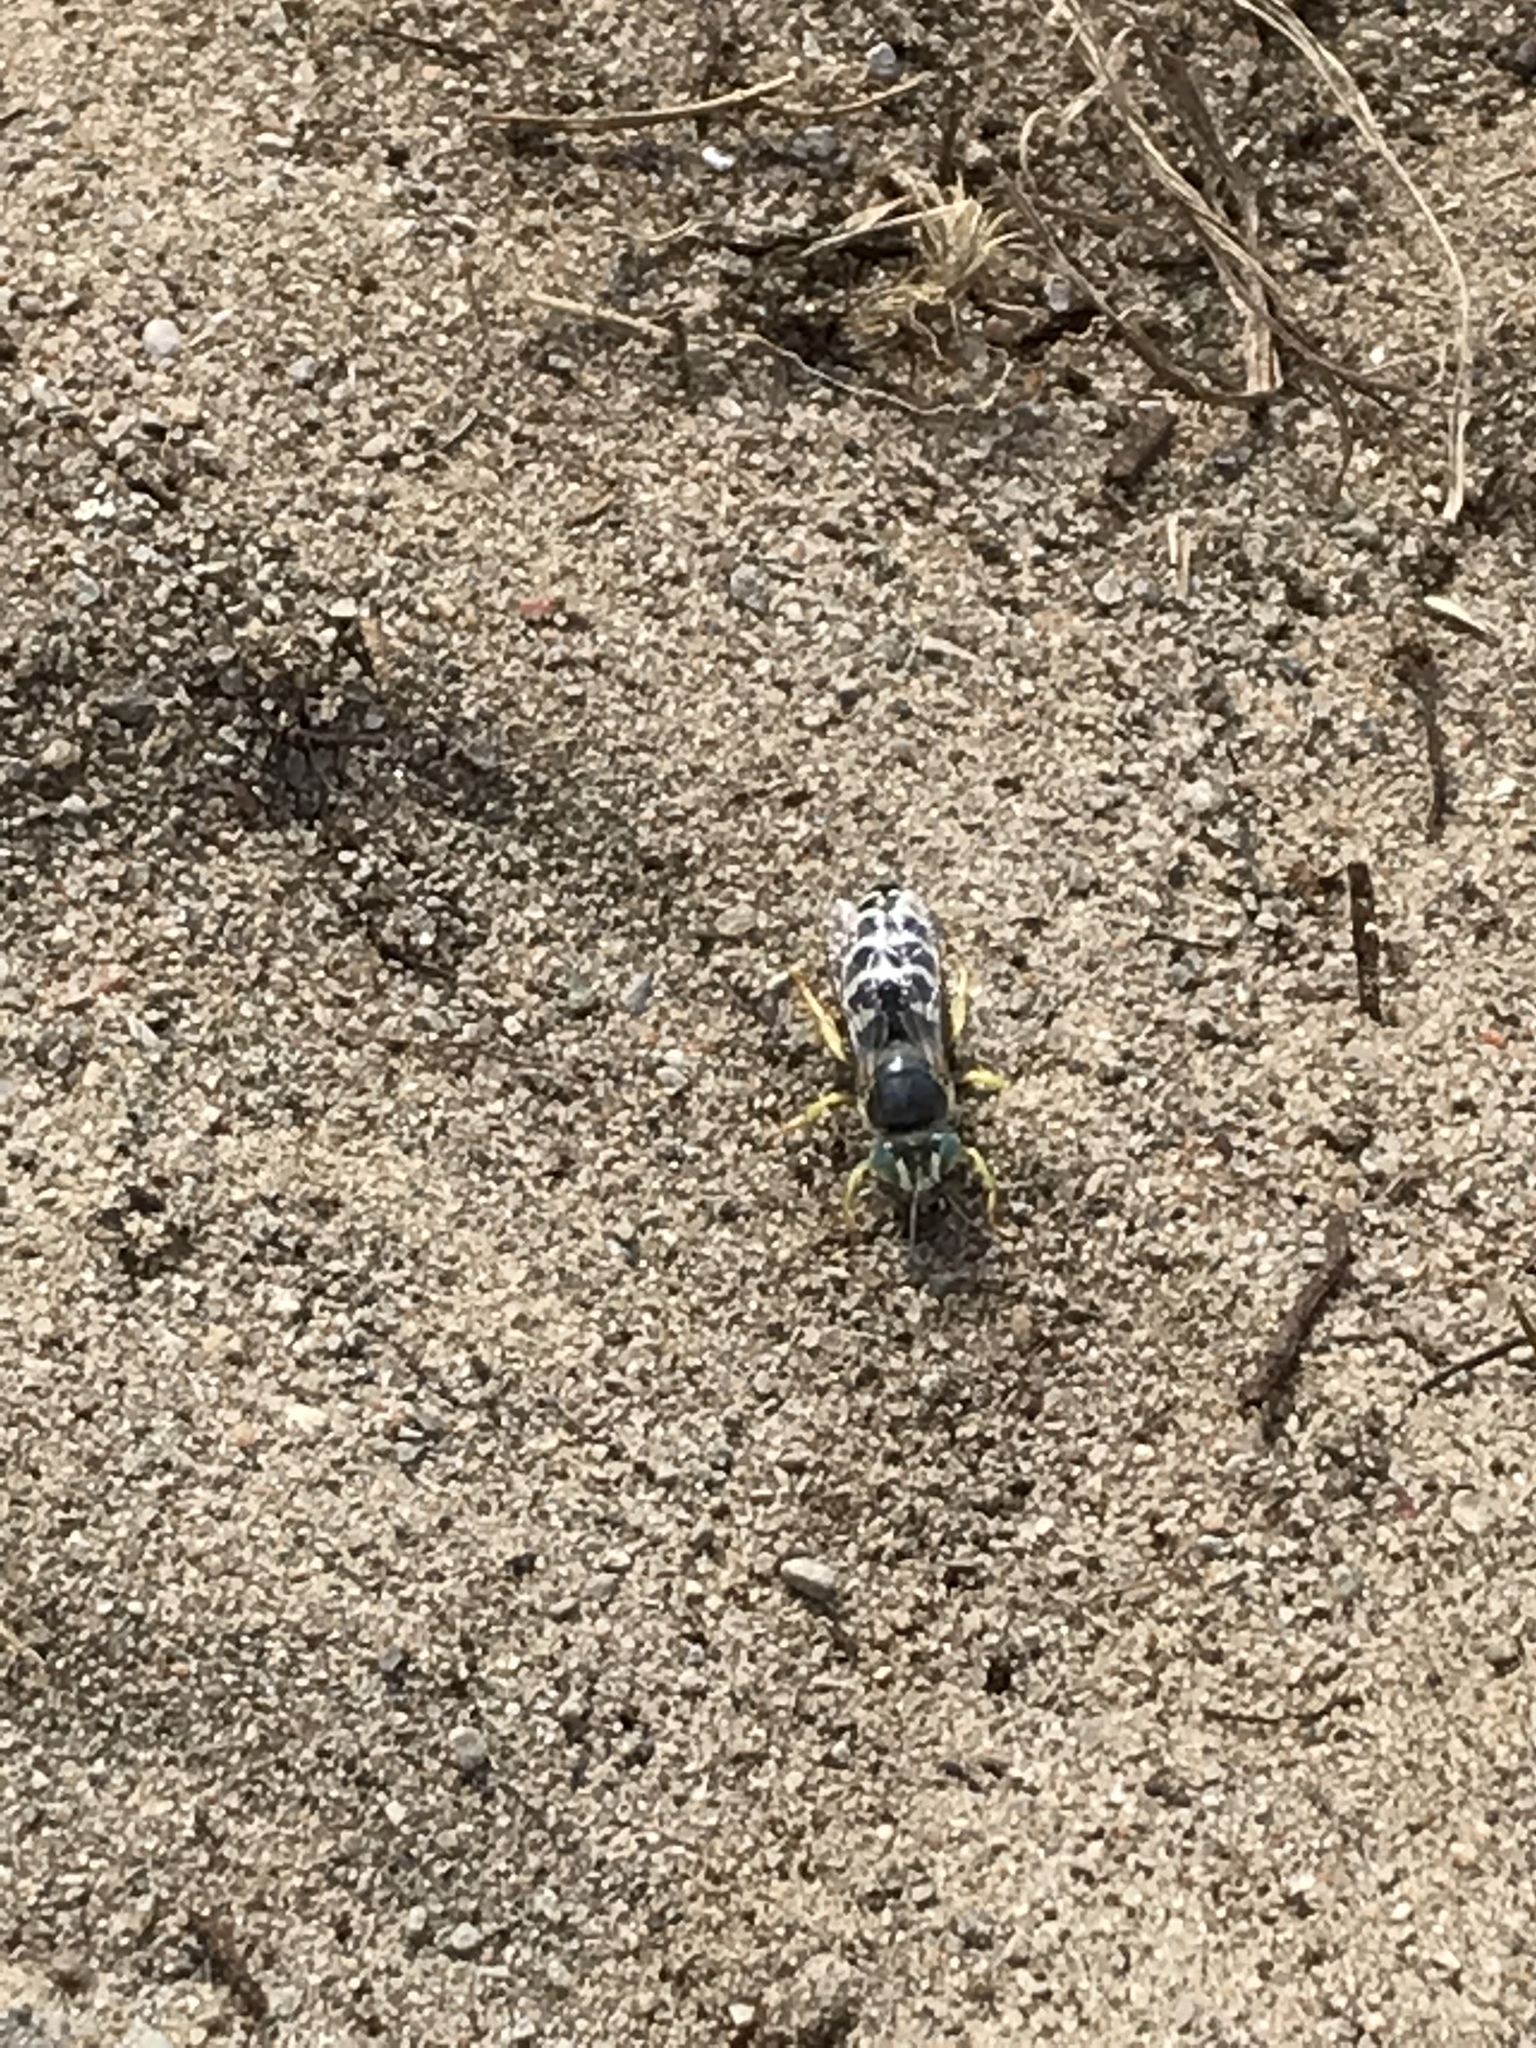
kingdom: Animalia
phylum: Arthropoda
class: Insecta
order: Hymenoptera
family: Crabronidae
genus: Bembix
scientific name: Bembix americana
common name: American sand wasp
